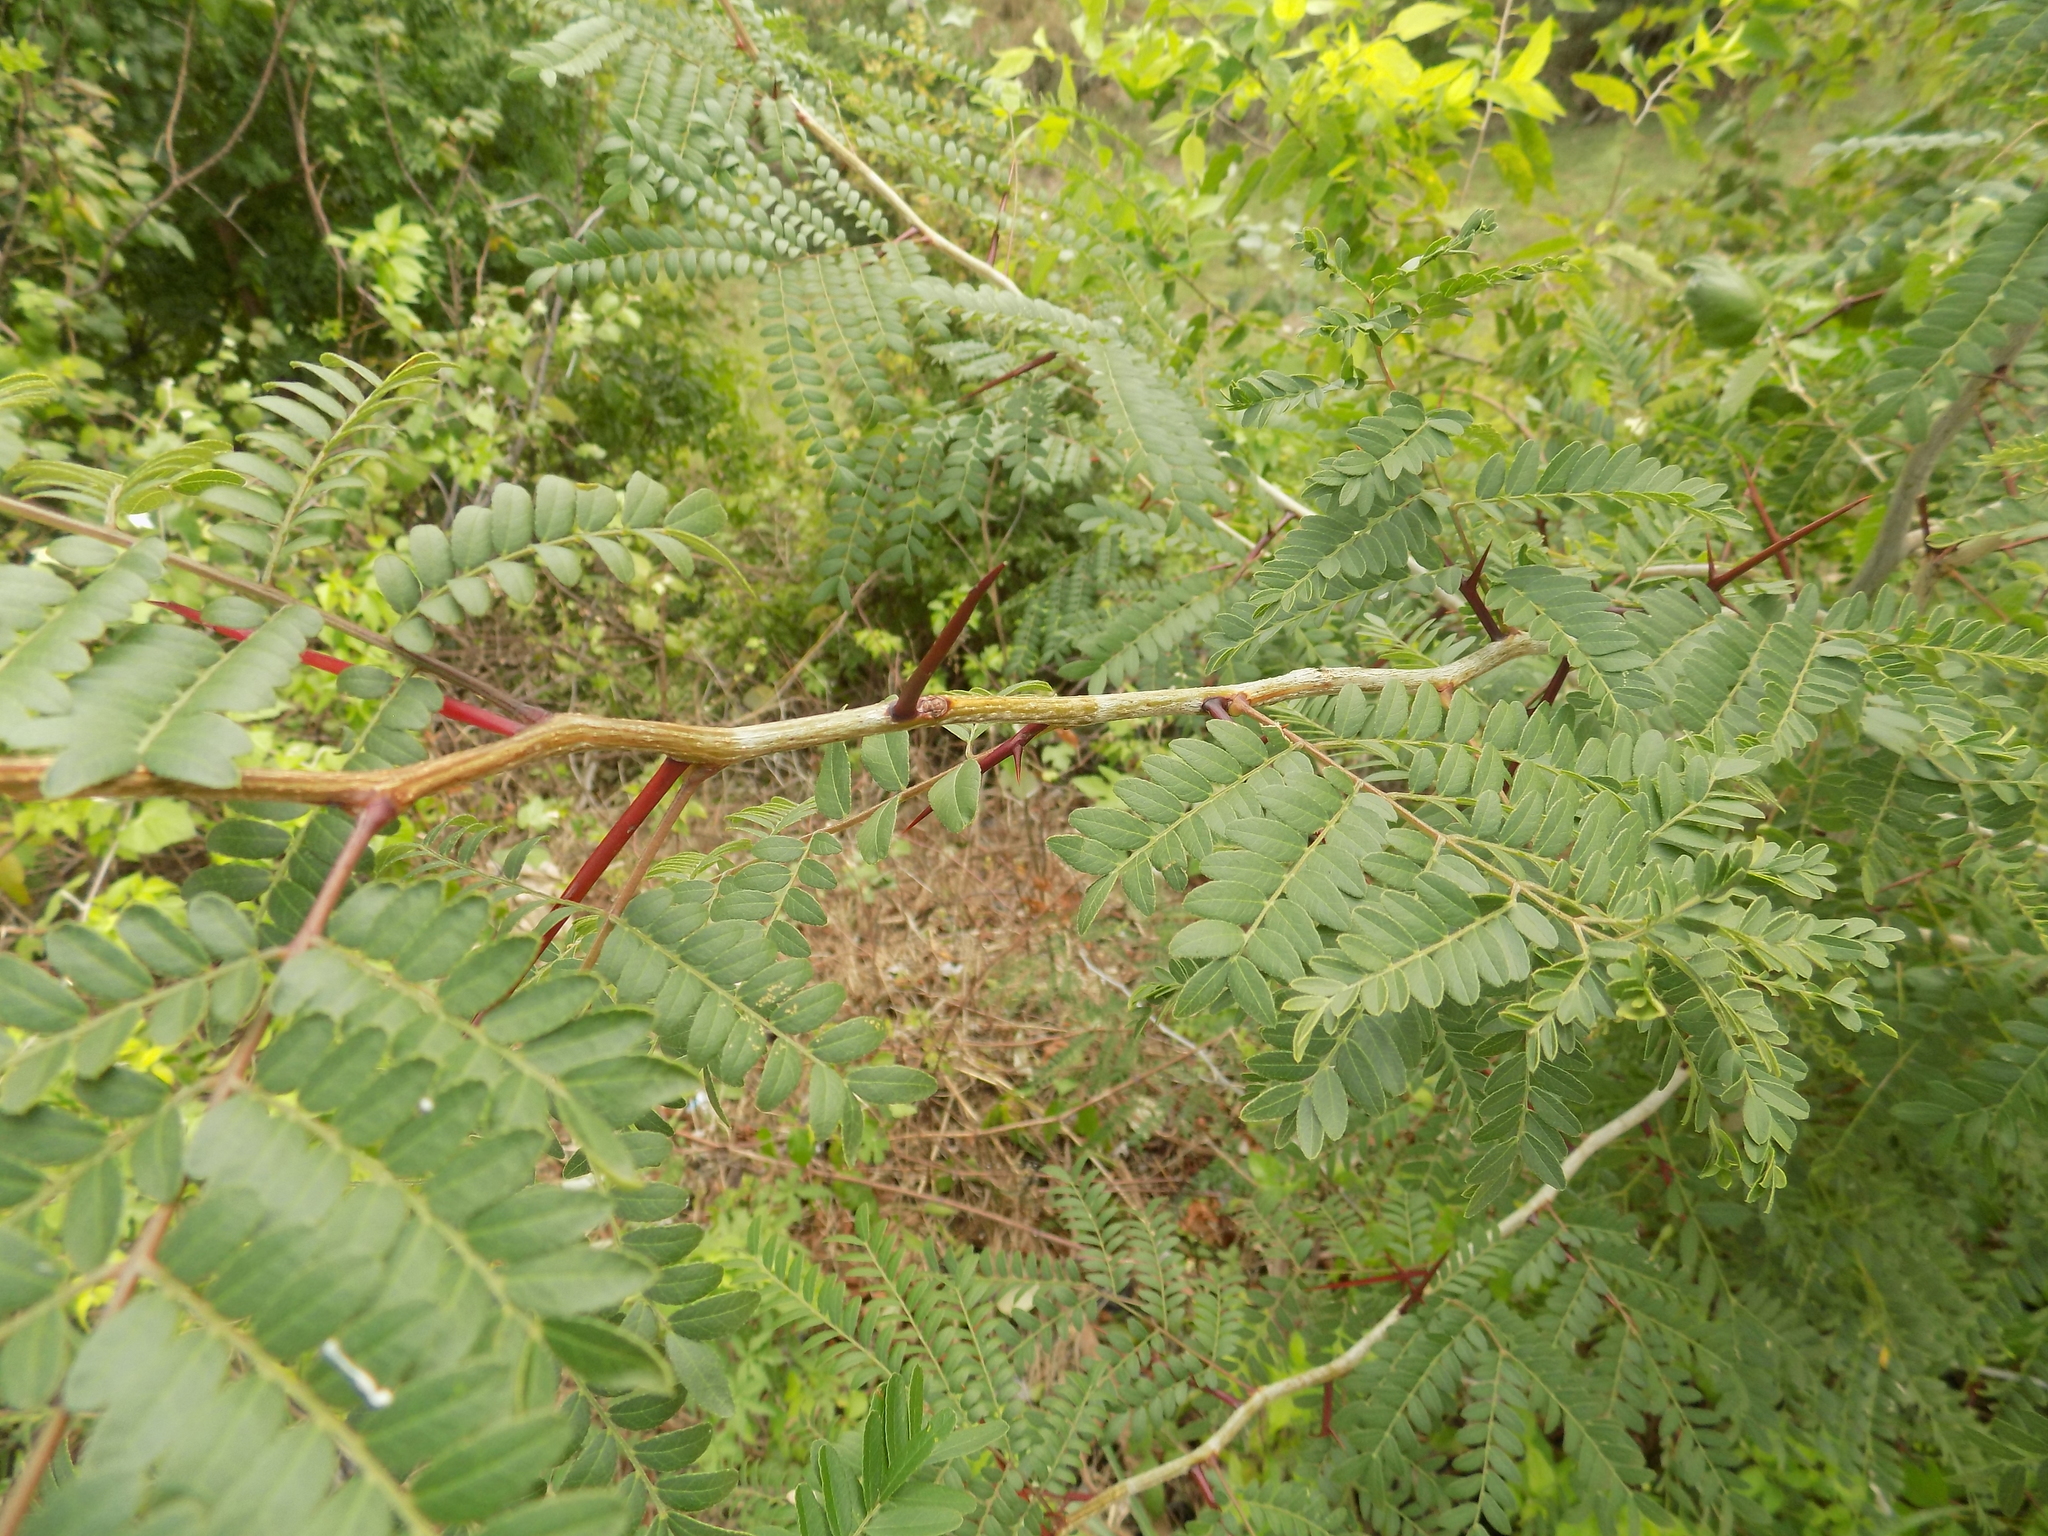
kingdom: Plantae
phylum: Tracheophyta
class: Magnoliopsida
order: Fabales
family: Fabaceae
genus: Gleditsia
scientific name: Gleditsia triacanthos
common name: Common honeylocust
